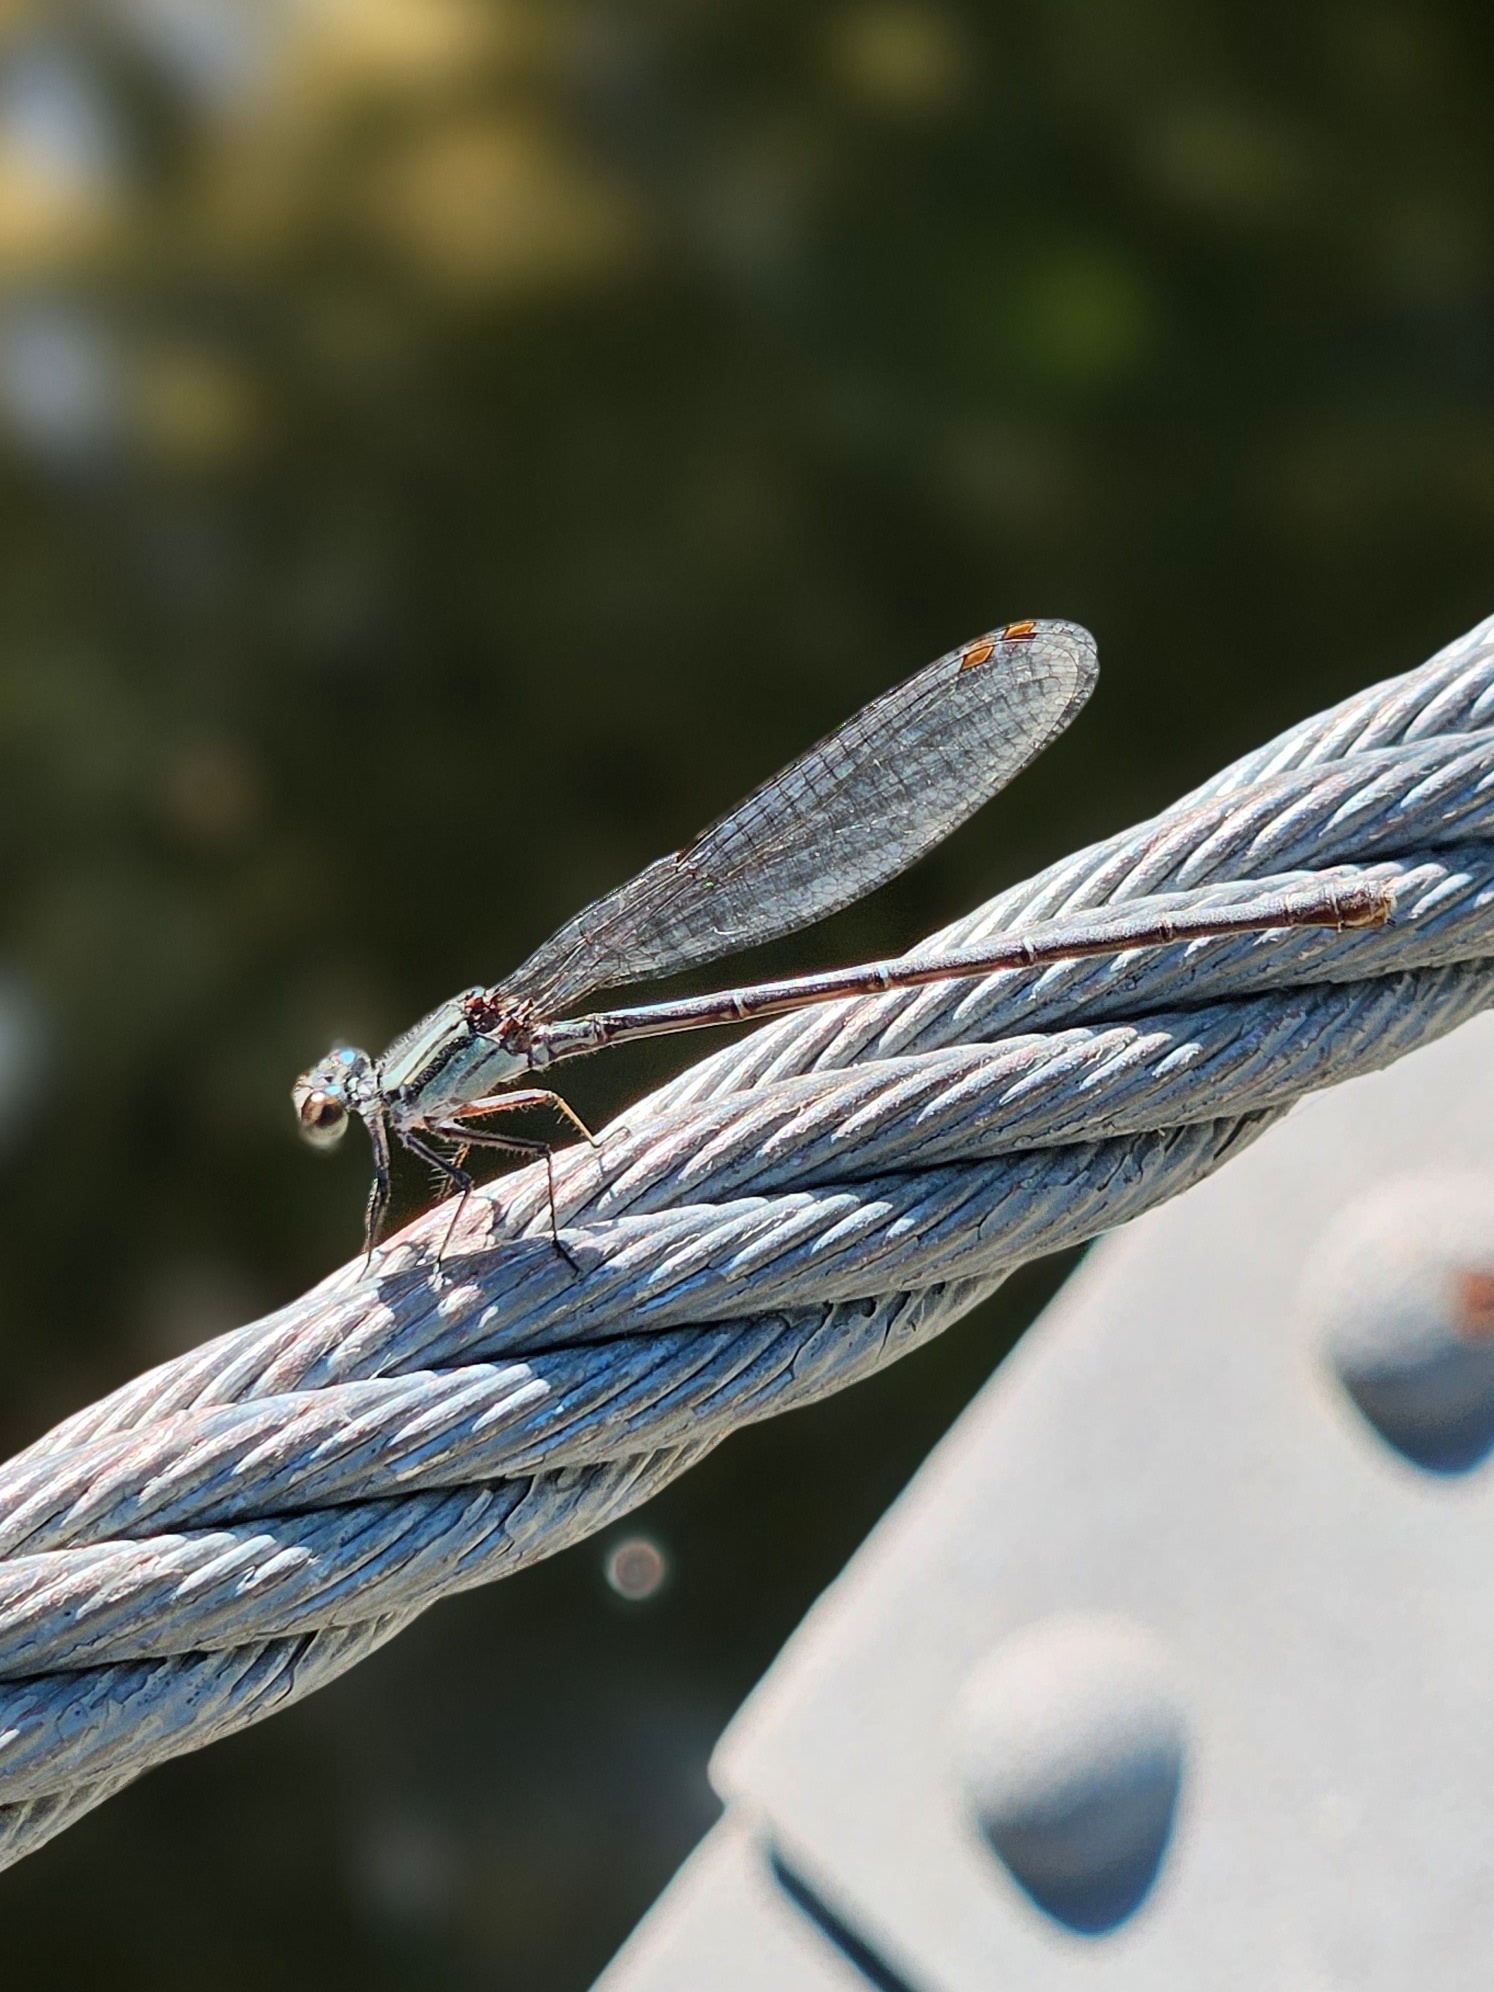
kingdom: Animalia
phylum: Arthropoda
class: Insecta
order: Odonata
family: Coenagrionidae
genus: Argia
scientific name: Argia translata
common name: Dusky dancer
